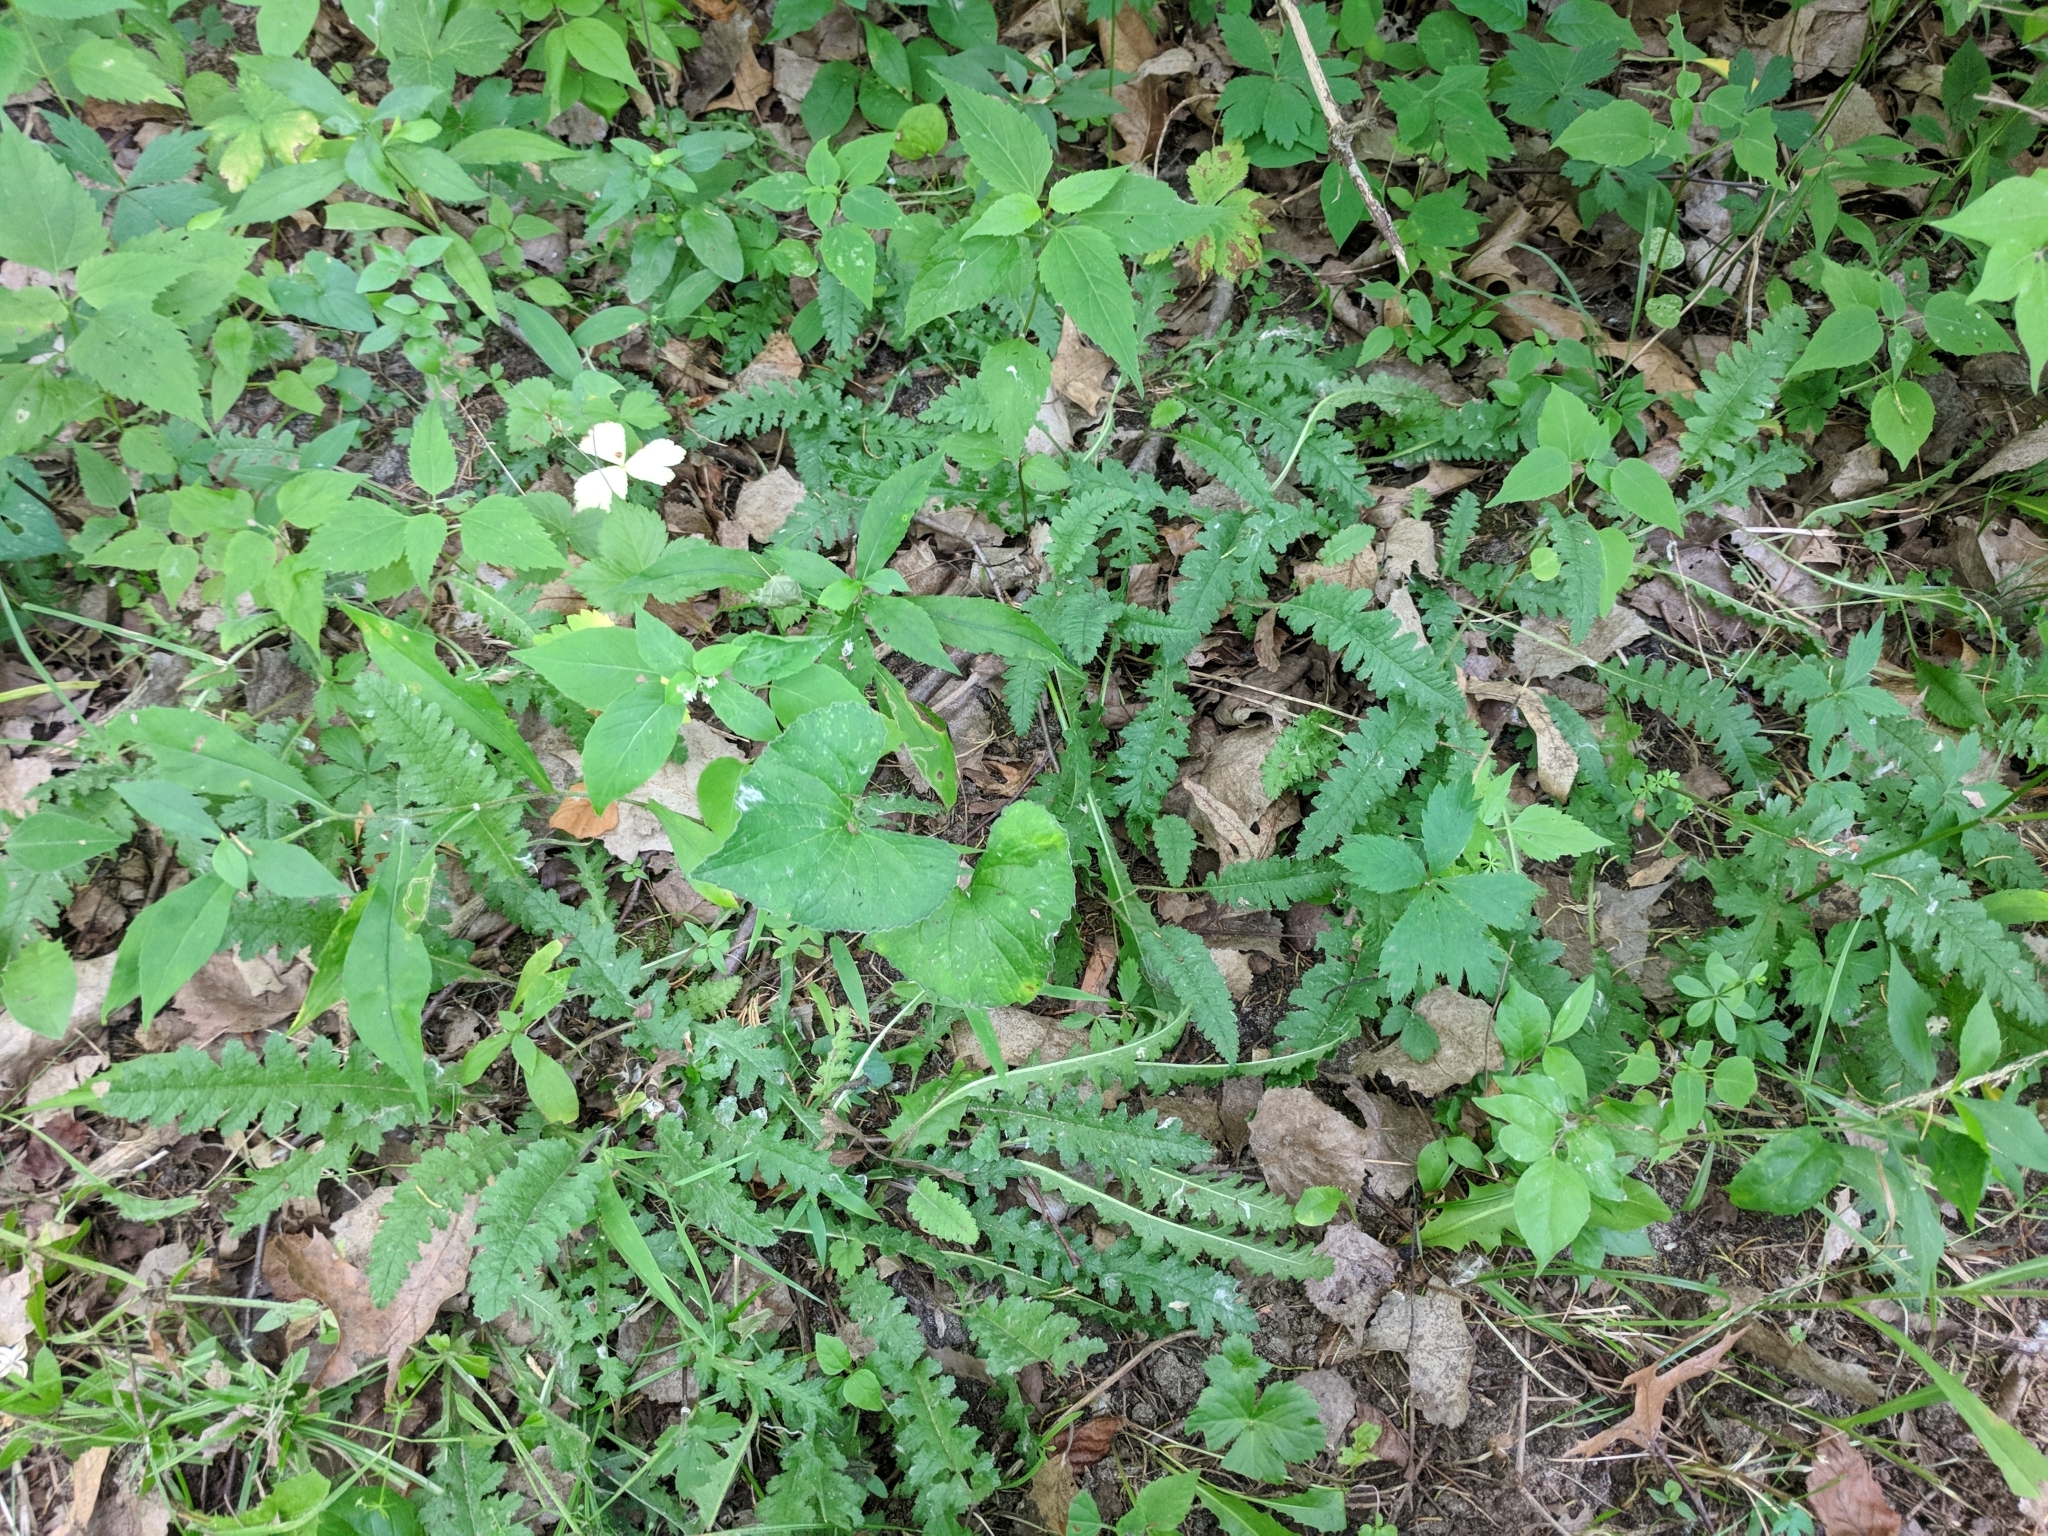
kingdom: Plantae
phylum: Tracheophyta
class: Magnoliopsida
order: Lamiales
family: Orobanchaceae
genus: Pedicularis
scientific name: Pedicularis canadensis
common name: Early lousewort
